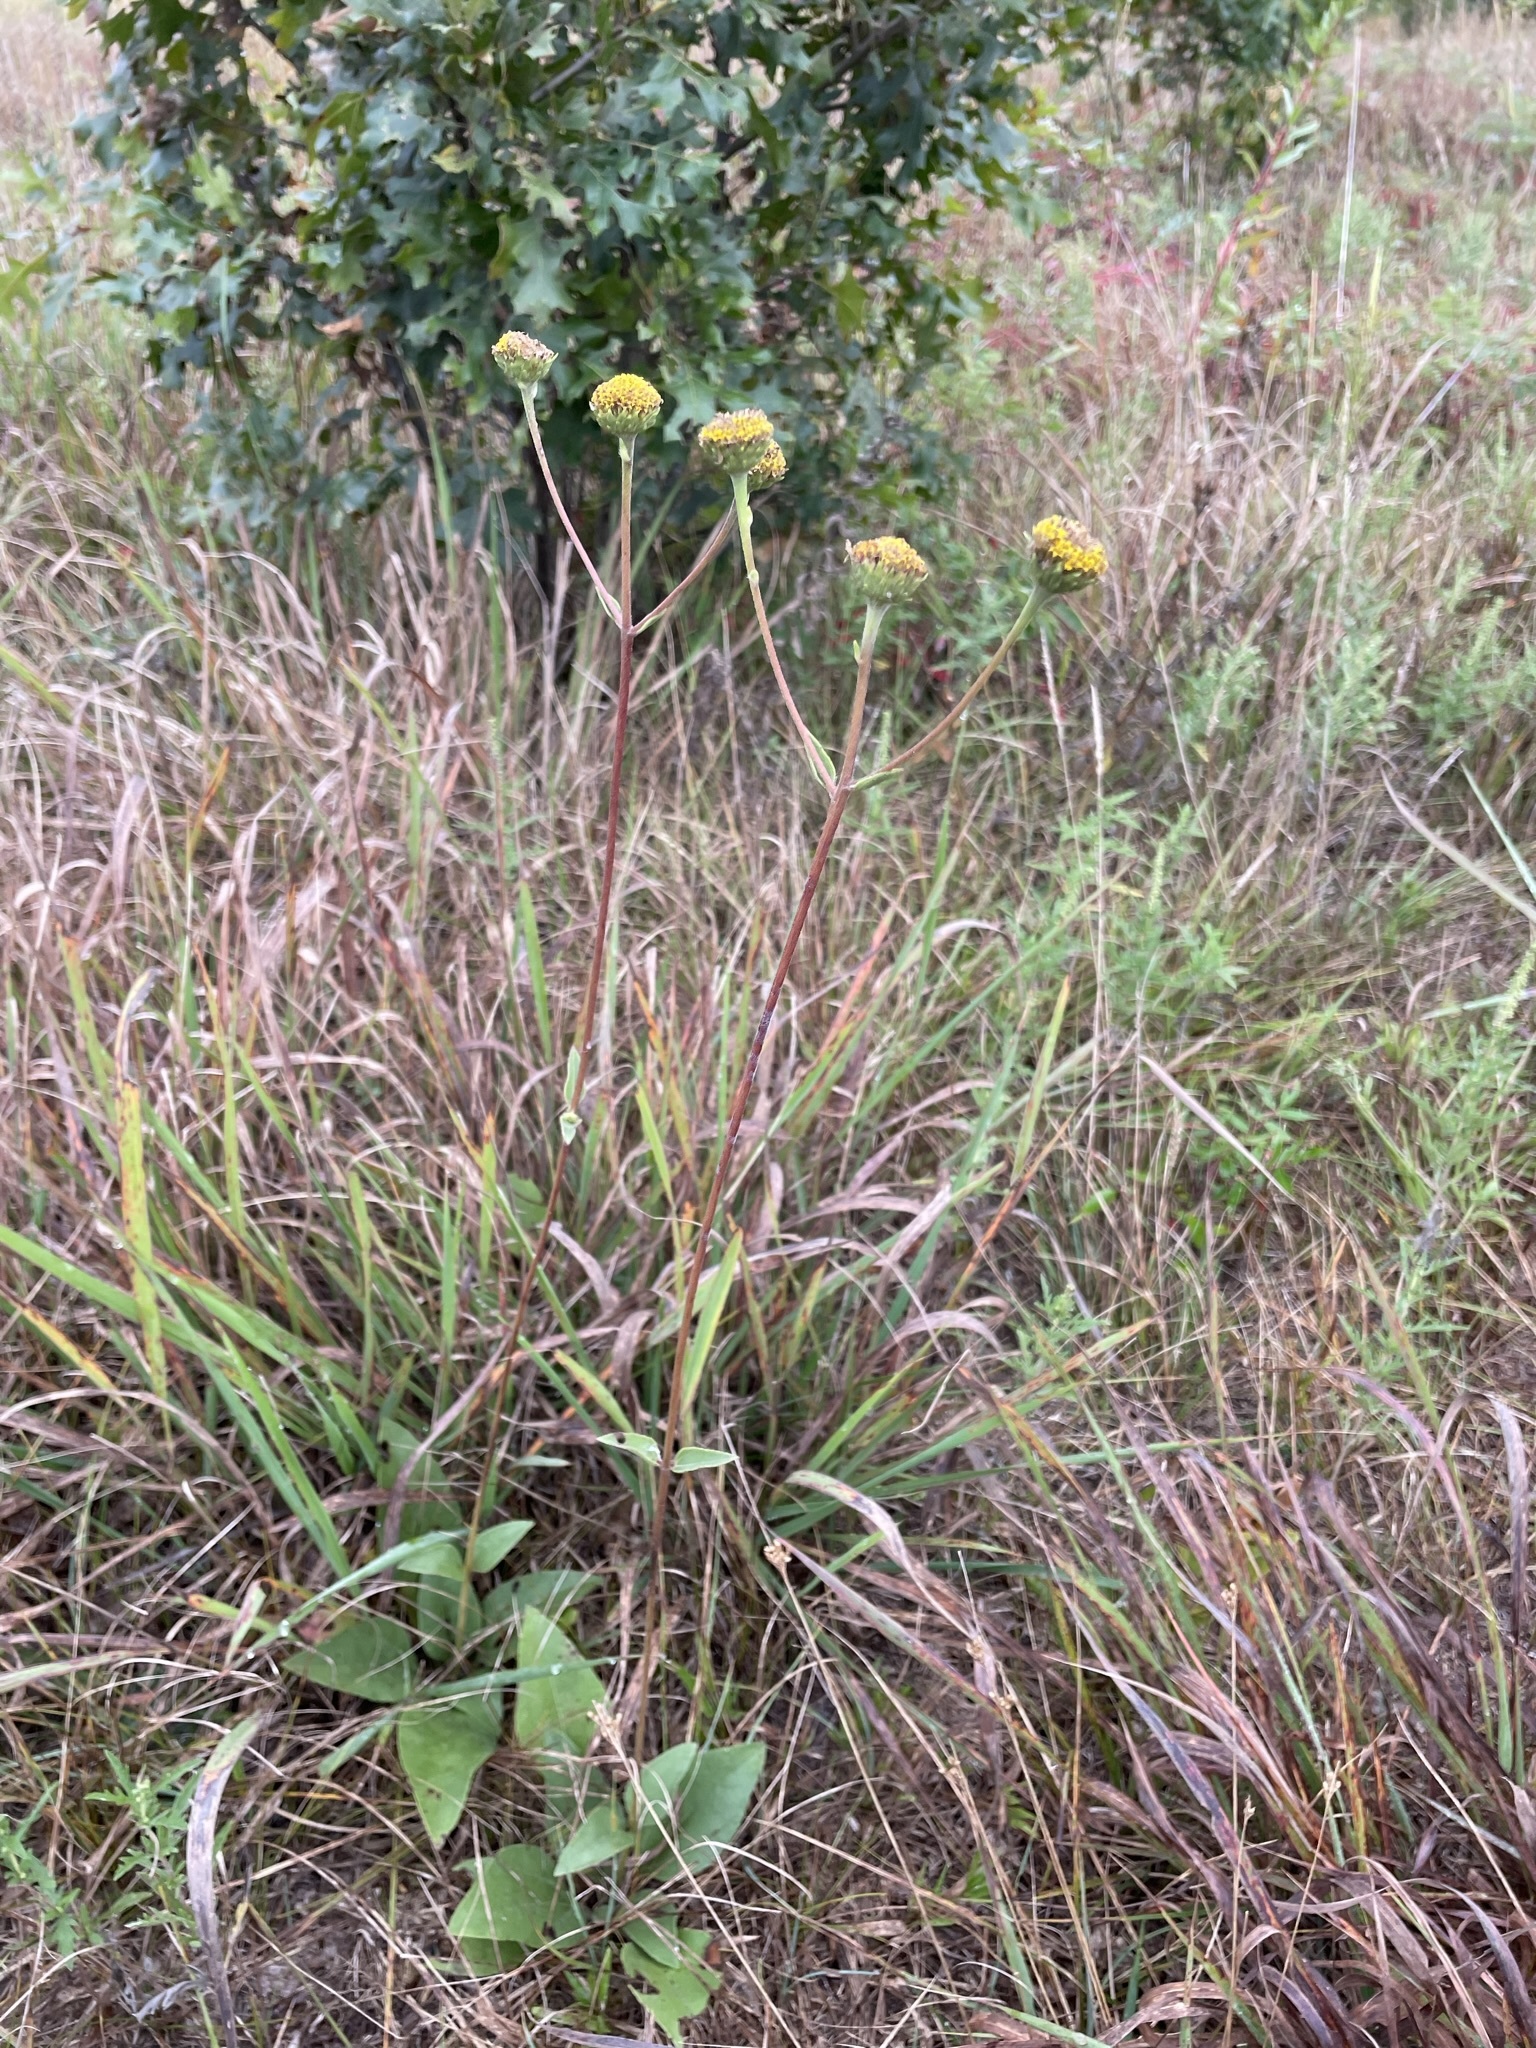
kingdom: Plantae
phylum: Tracheophyta
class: Magnoliopsida
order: Asterales
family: Asteraceae
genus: Helianthus
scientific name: Helianthus occidentalis
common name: Western sunflower
